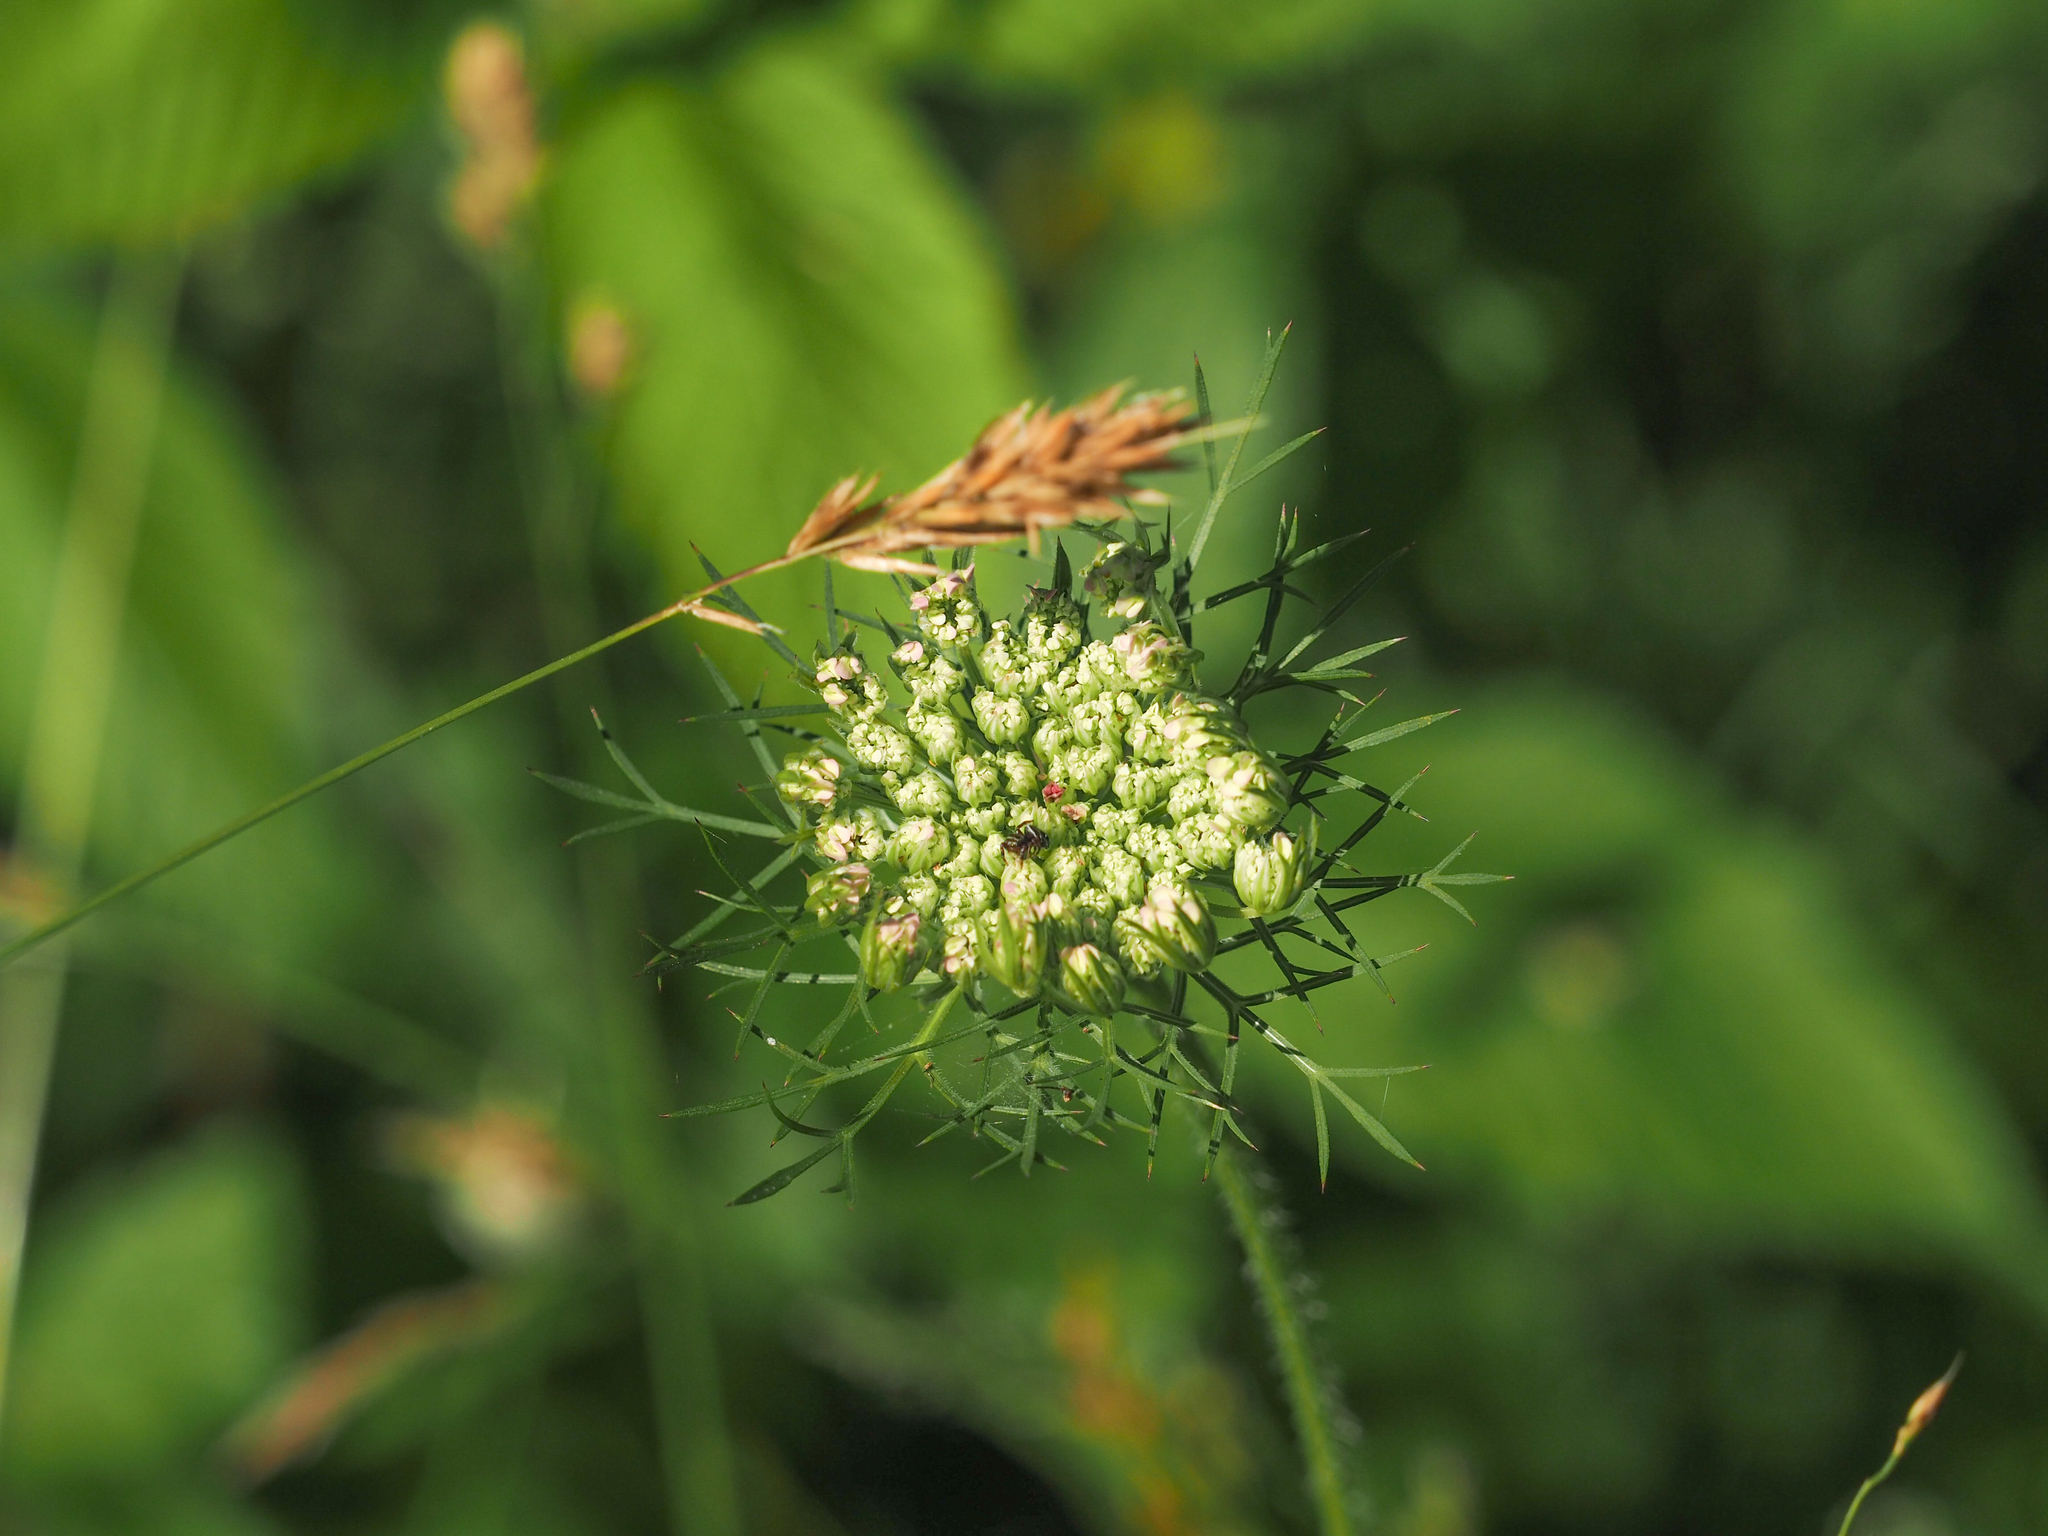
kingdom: Plantae
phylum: Tracheophyta
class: Magnoliopsida
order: Apiales
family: Apiaceae
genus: Daucus
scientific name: Daucus carota
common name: Wild carrot
